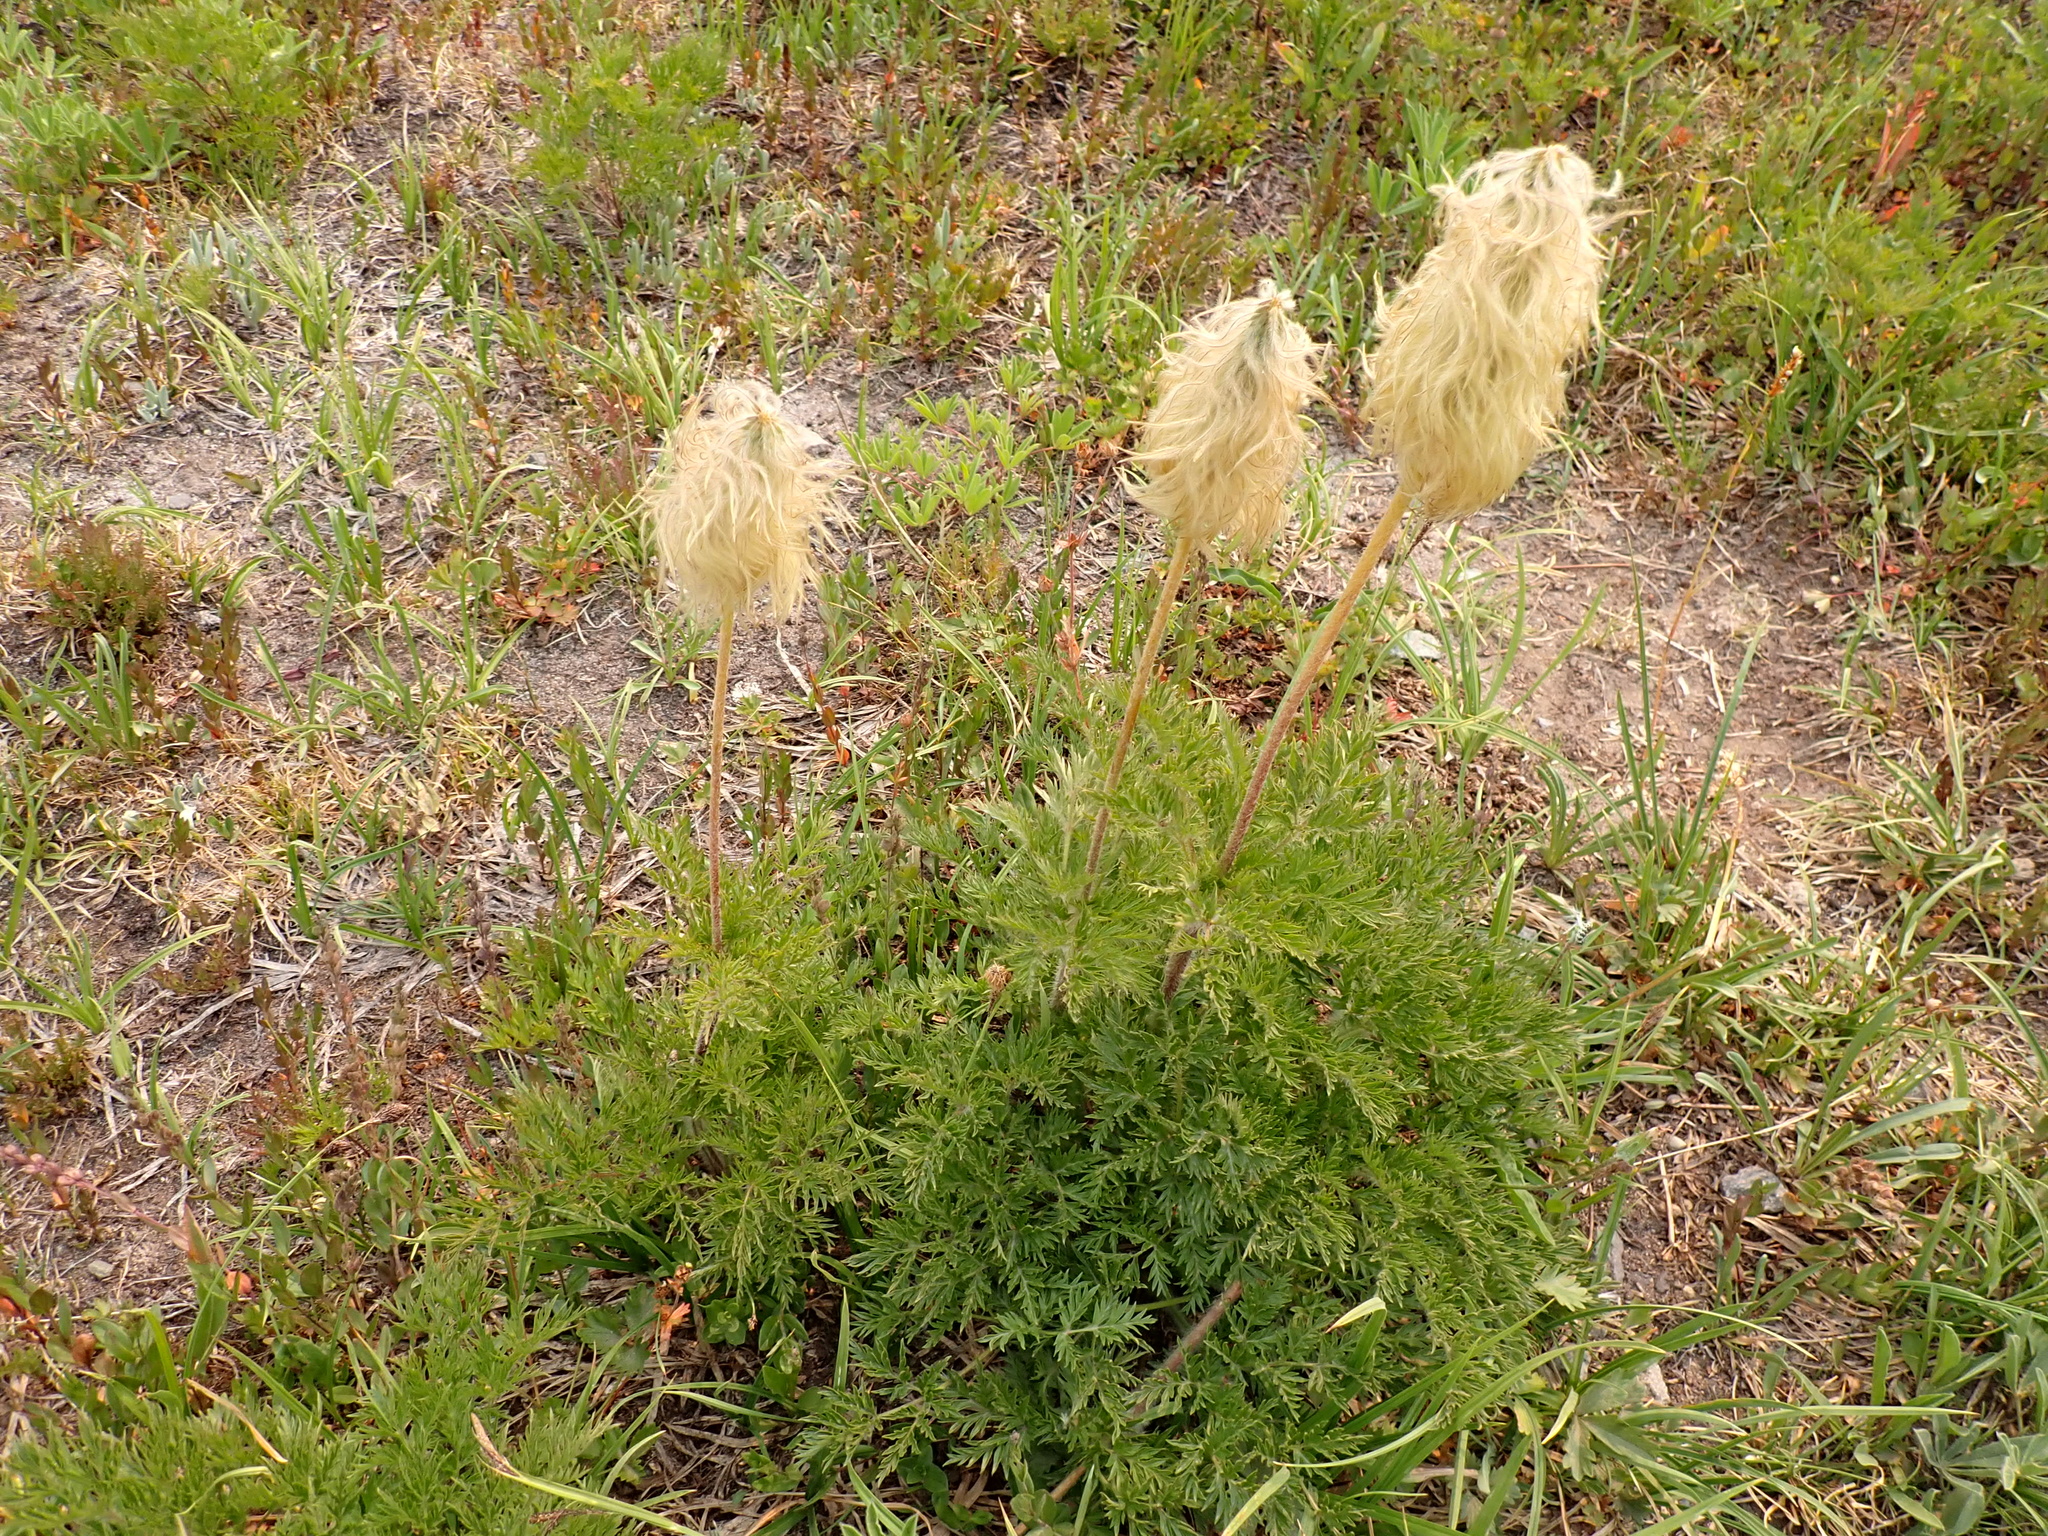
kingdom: Plantae
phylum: Tracheophyta
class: Magnoliopsida
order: Ranunculales
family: Ranunculaceae
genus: Pulsatilla
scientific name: Pulsatilla occidentalis
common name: Mountain pasqueflower
